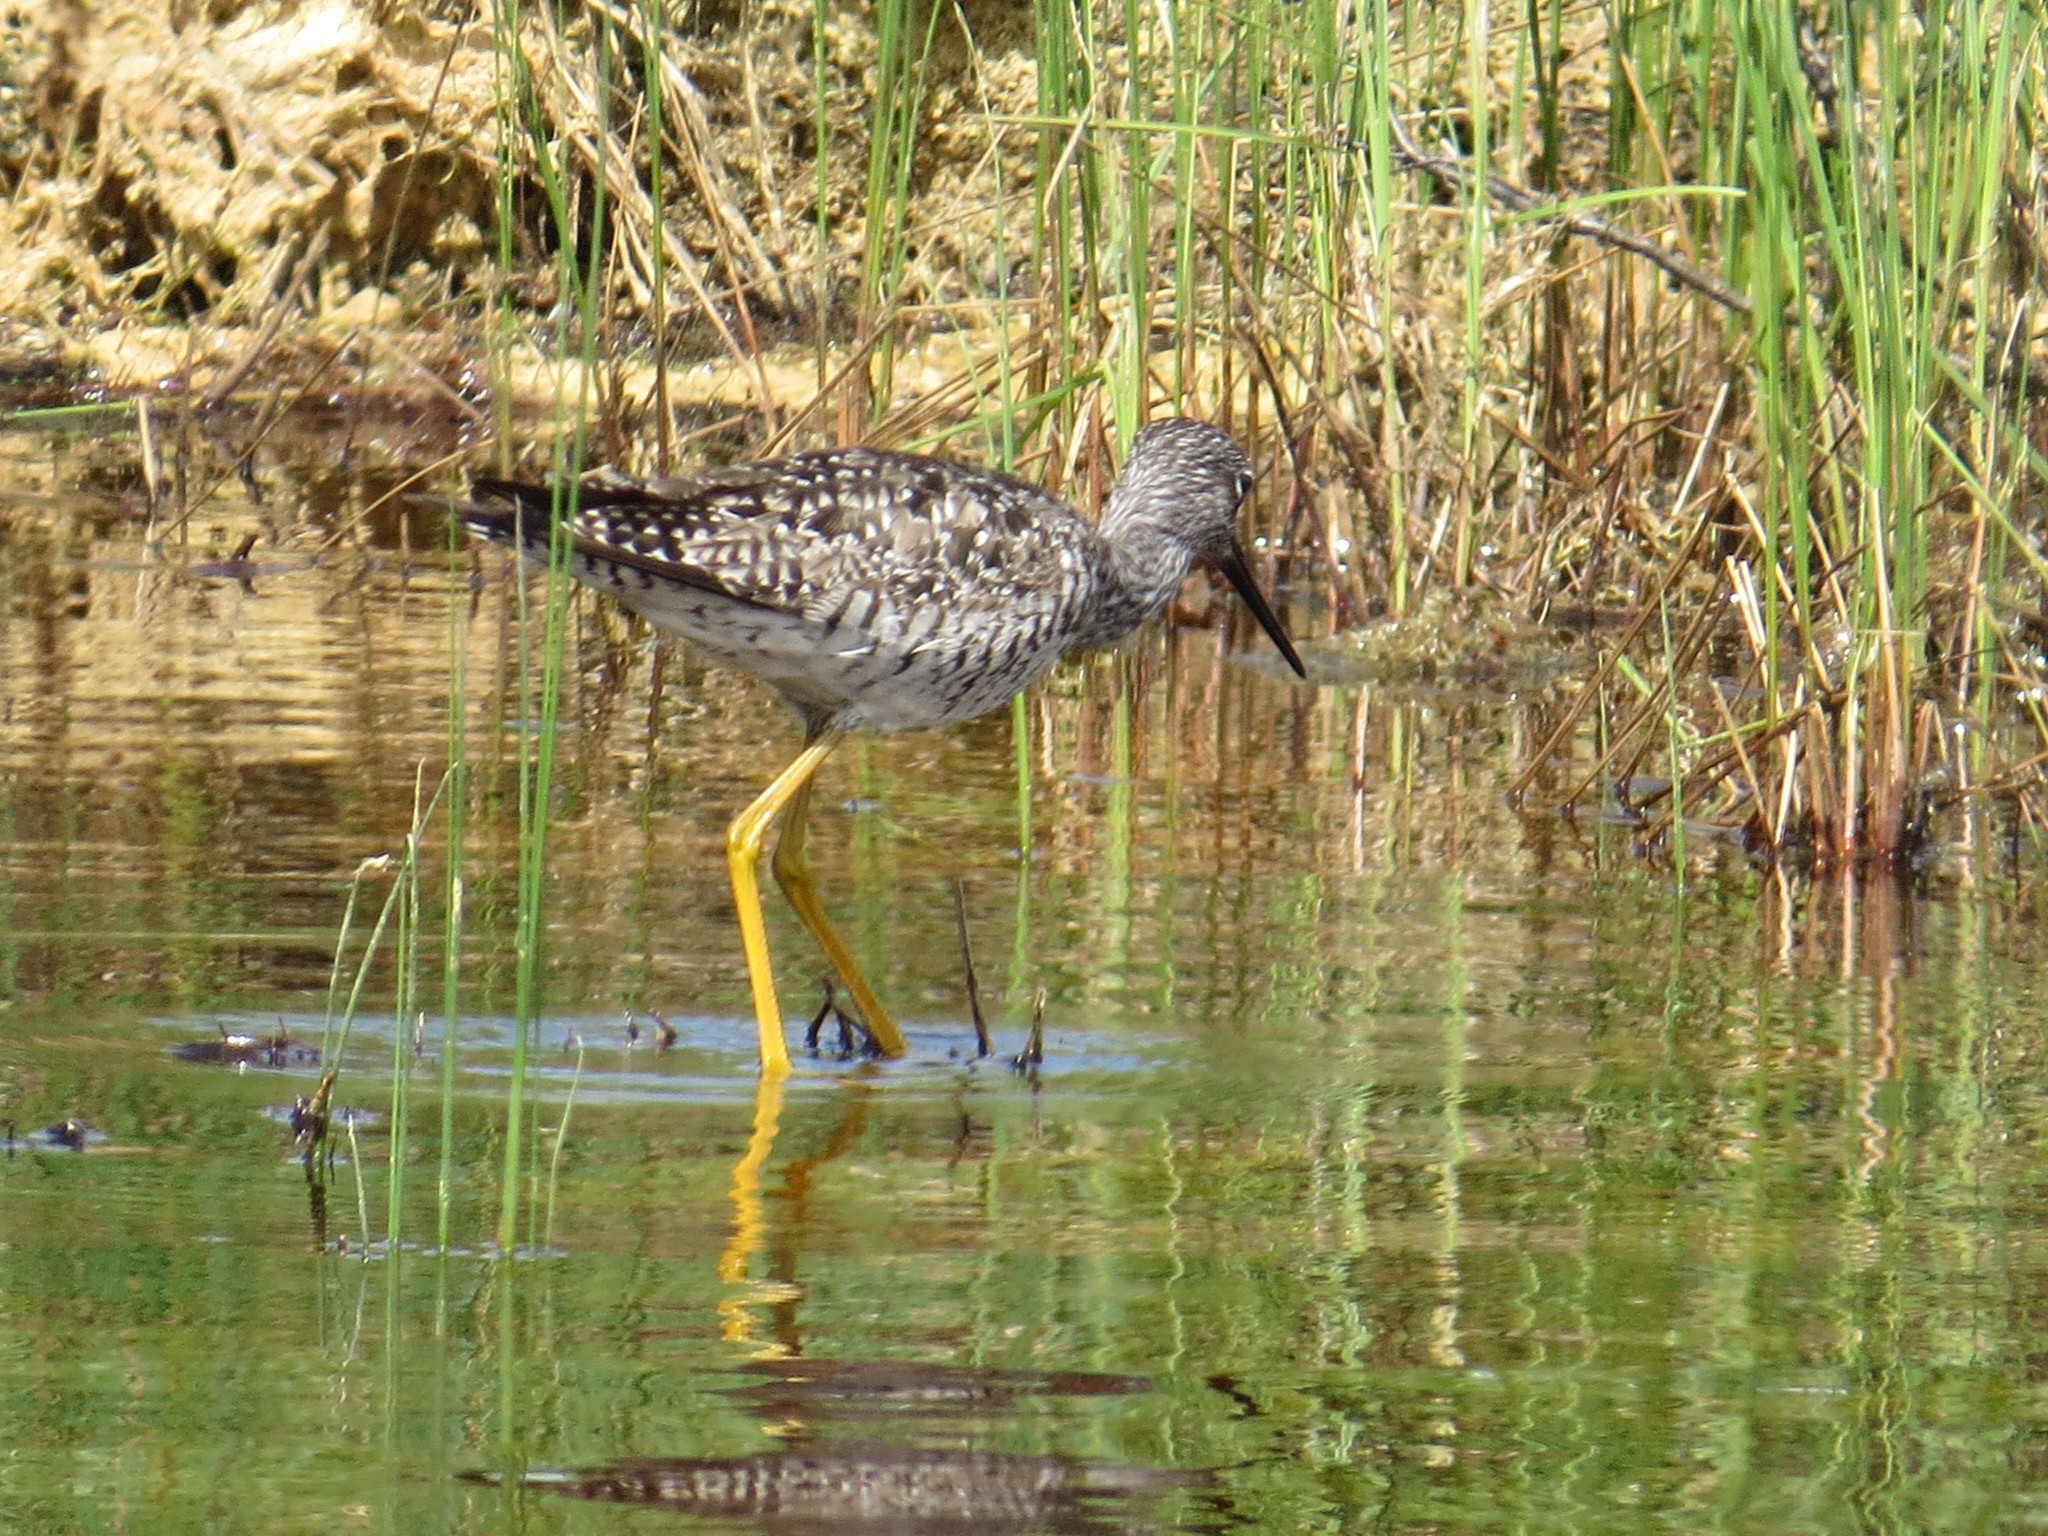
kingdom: Animalia
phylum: Chordata
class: Aves
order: Charadriiformes
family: Scolopacidae
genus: Tringa
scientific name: Tringa melanoleuca
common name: Greater yellowlegs
